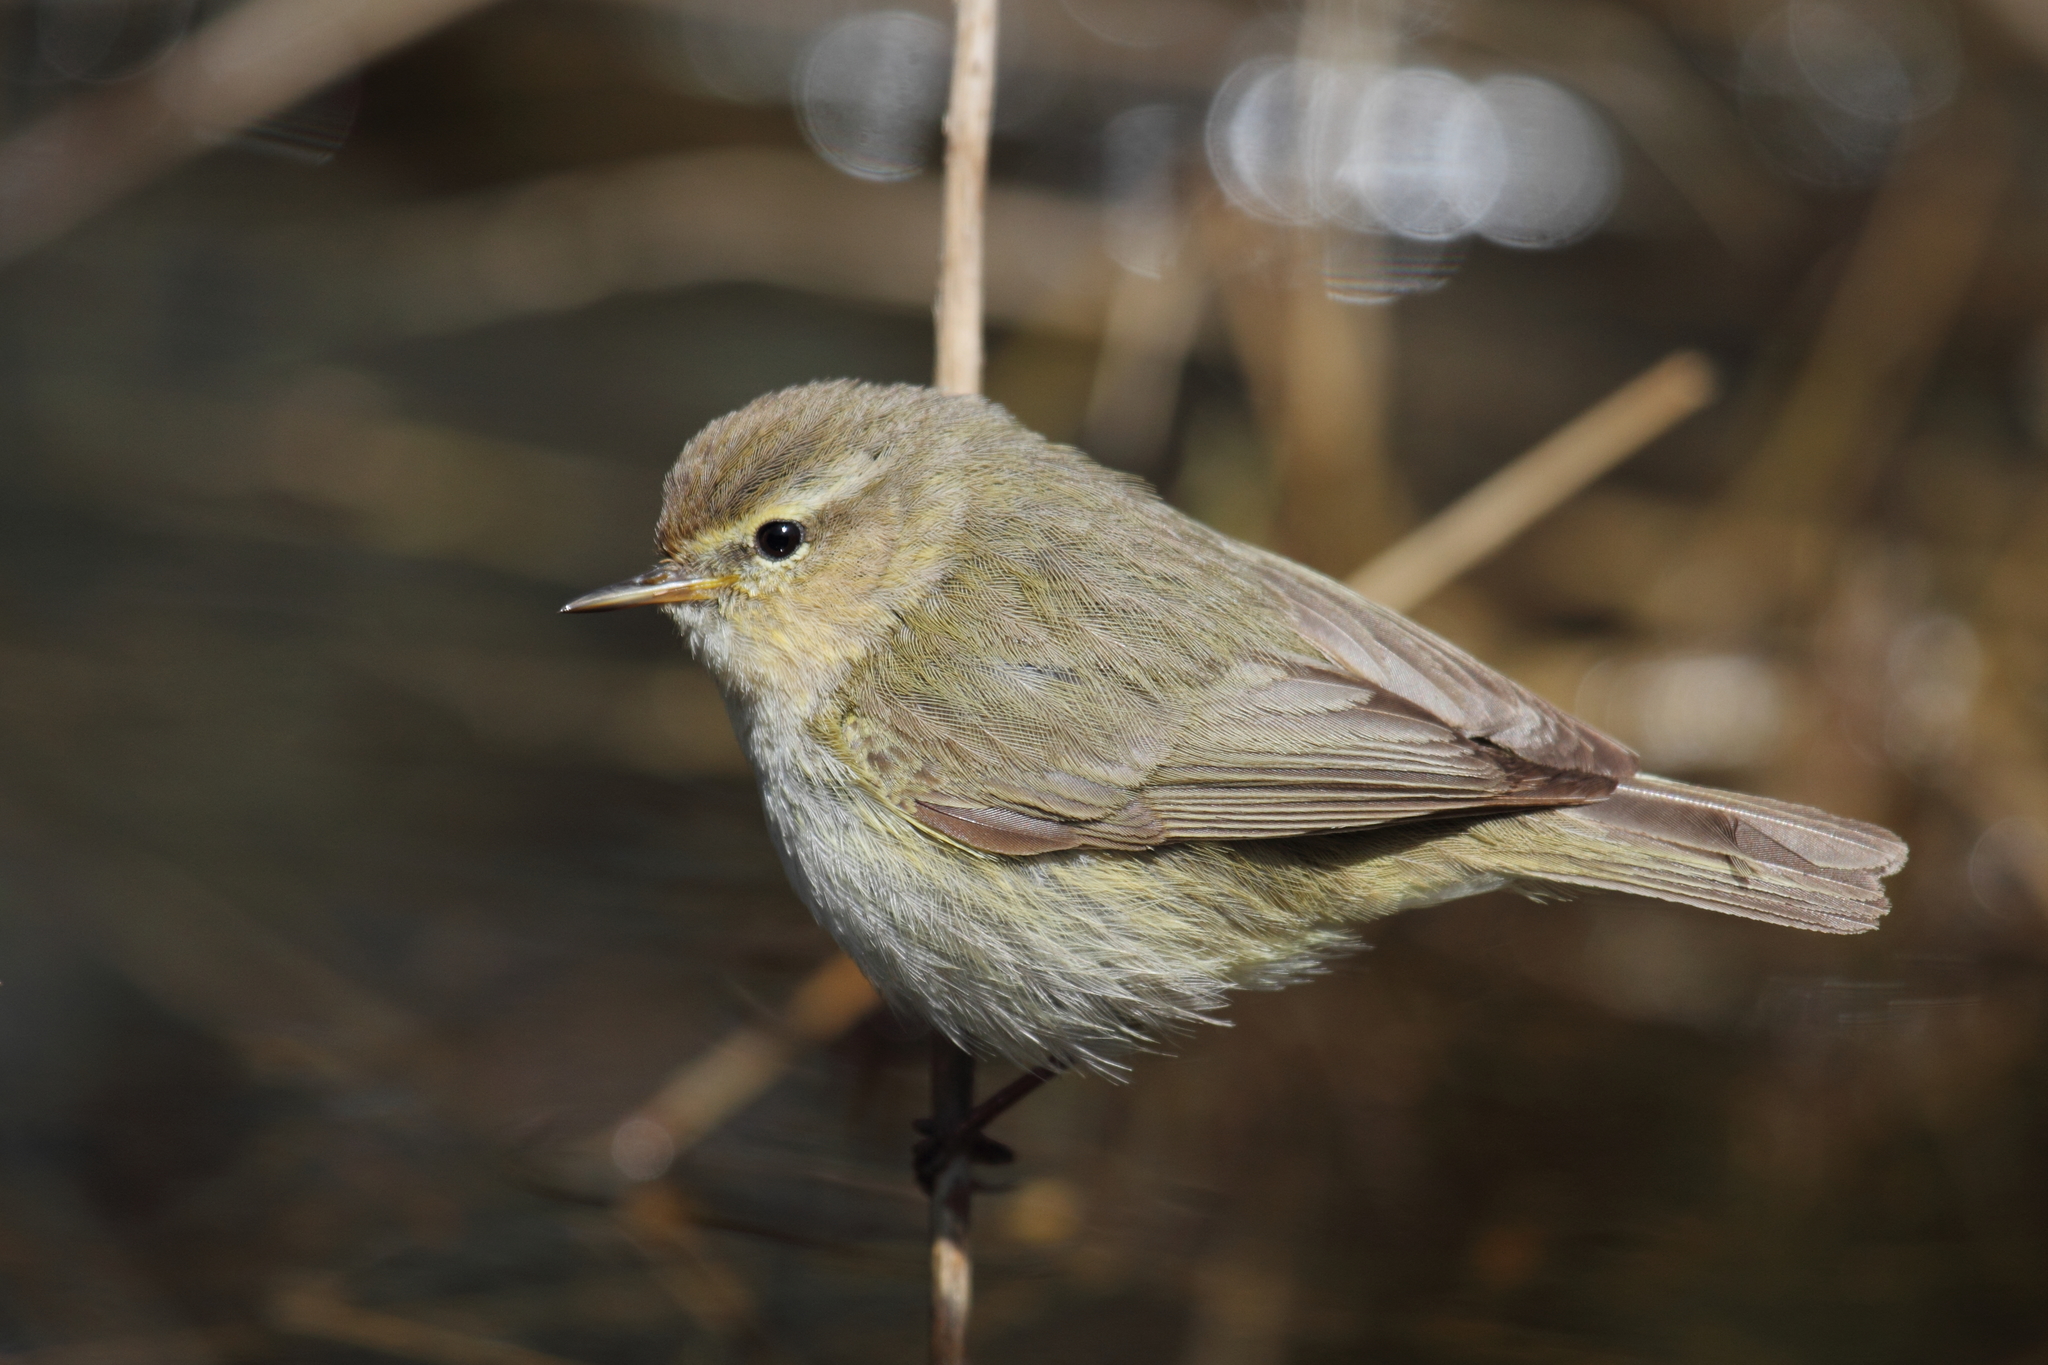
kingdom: Animalia
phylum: Chordata
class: Aves
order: Passeriformes
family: Phylloscopidae
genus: Phylloscopus
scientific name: Phylloscopus collybita
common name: Common chiffchaff
